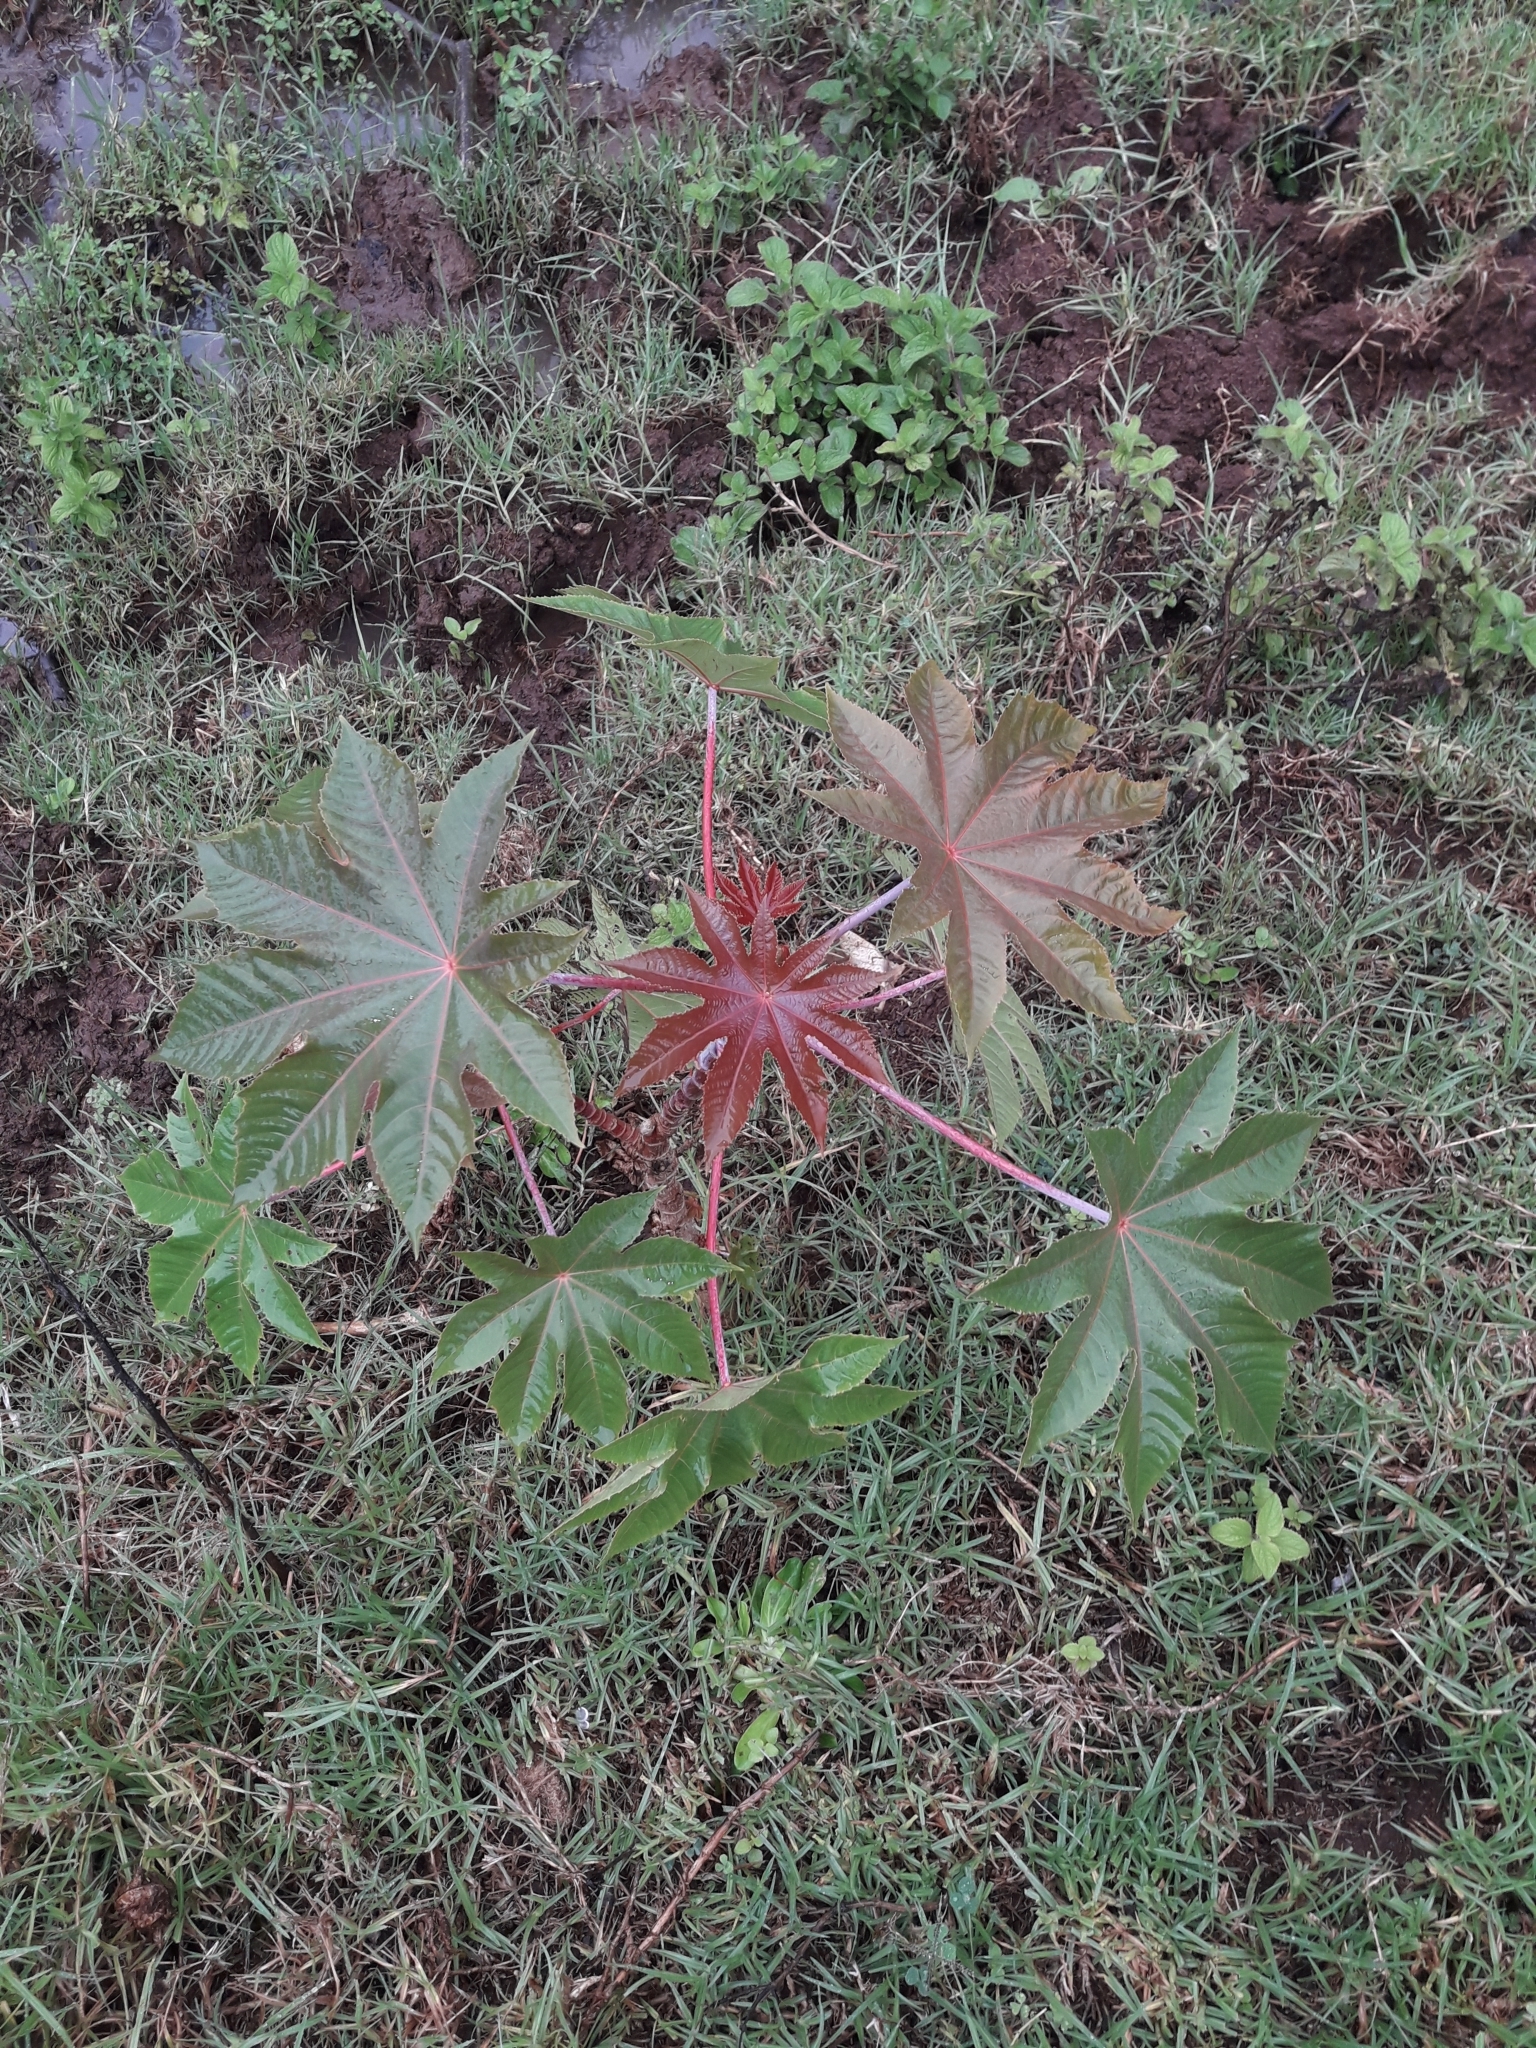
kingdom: Plantae
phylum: Tracheophyta
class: Magnoliopsida
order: Malpighiales
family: Euphorbiaceae
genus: Ricinus
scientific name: Ricinus communis
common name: Castor-oil-plant
